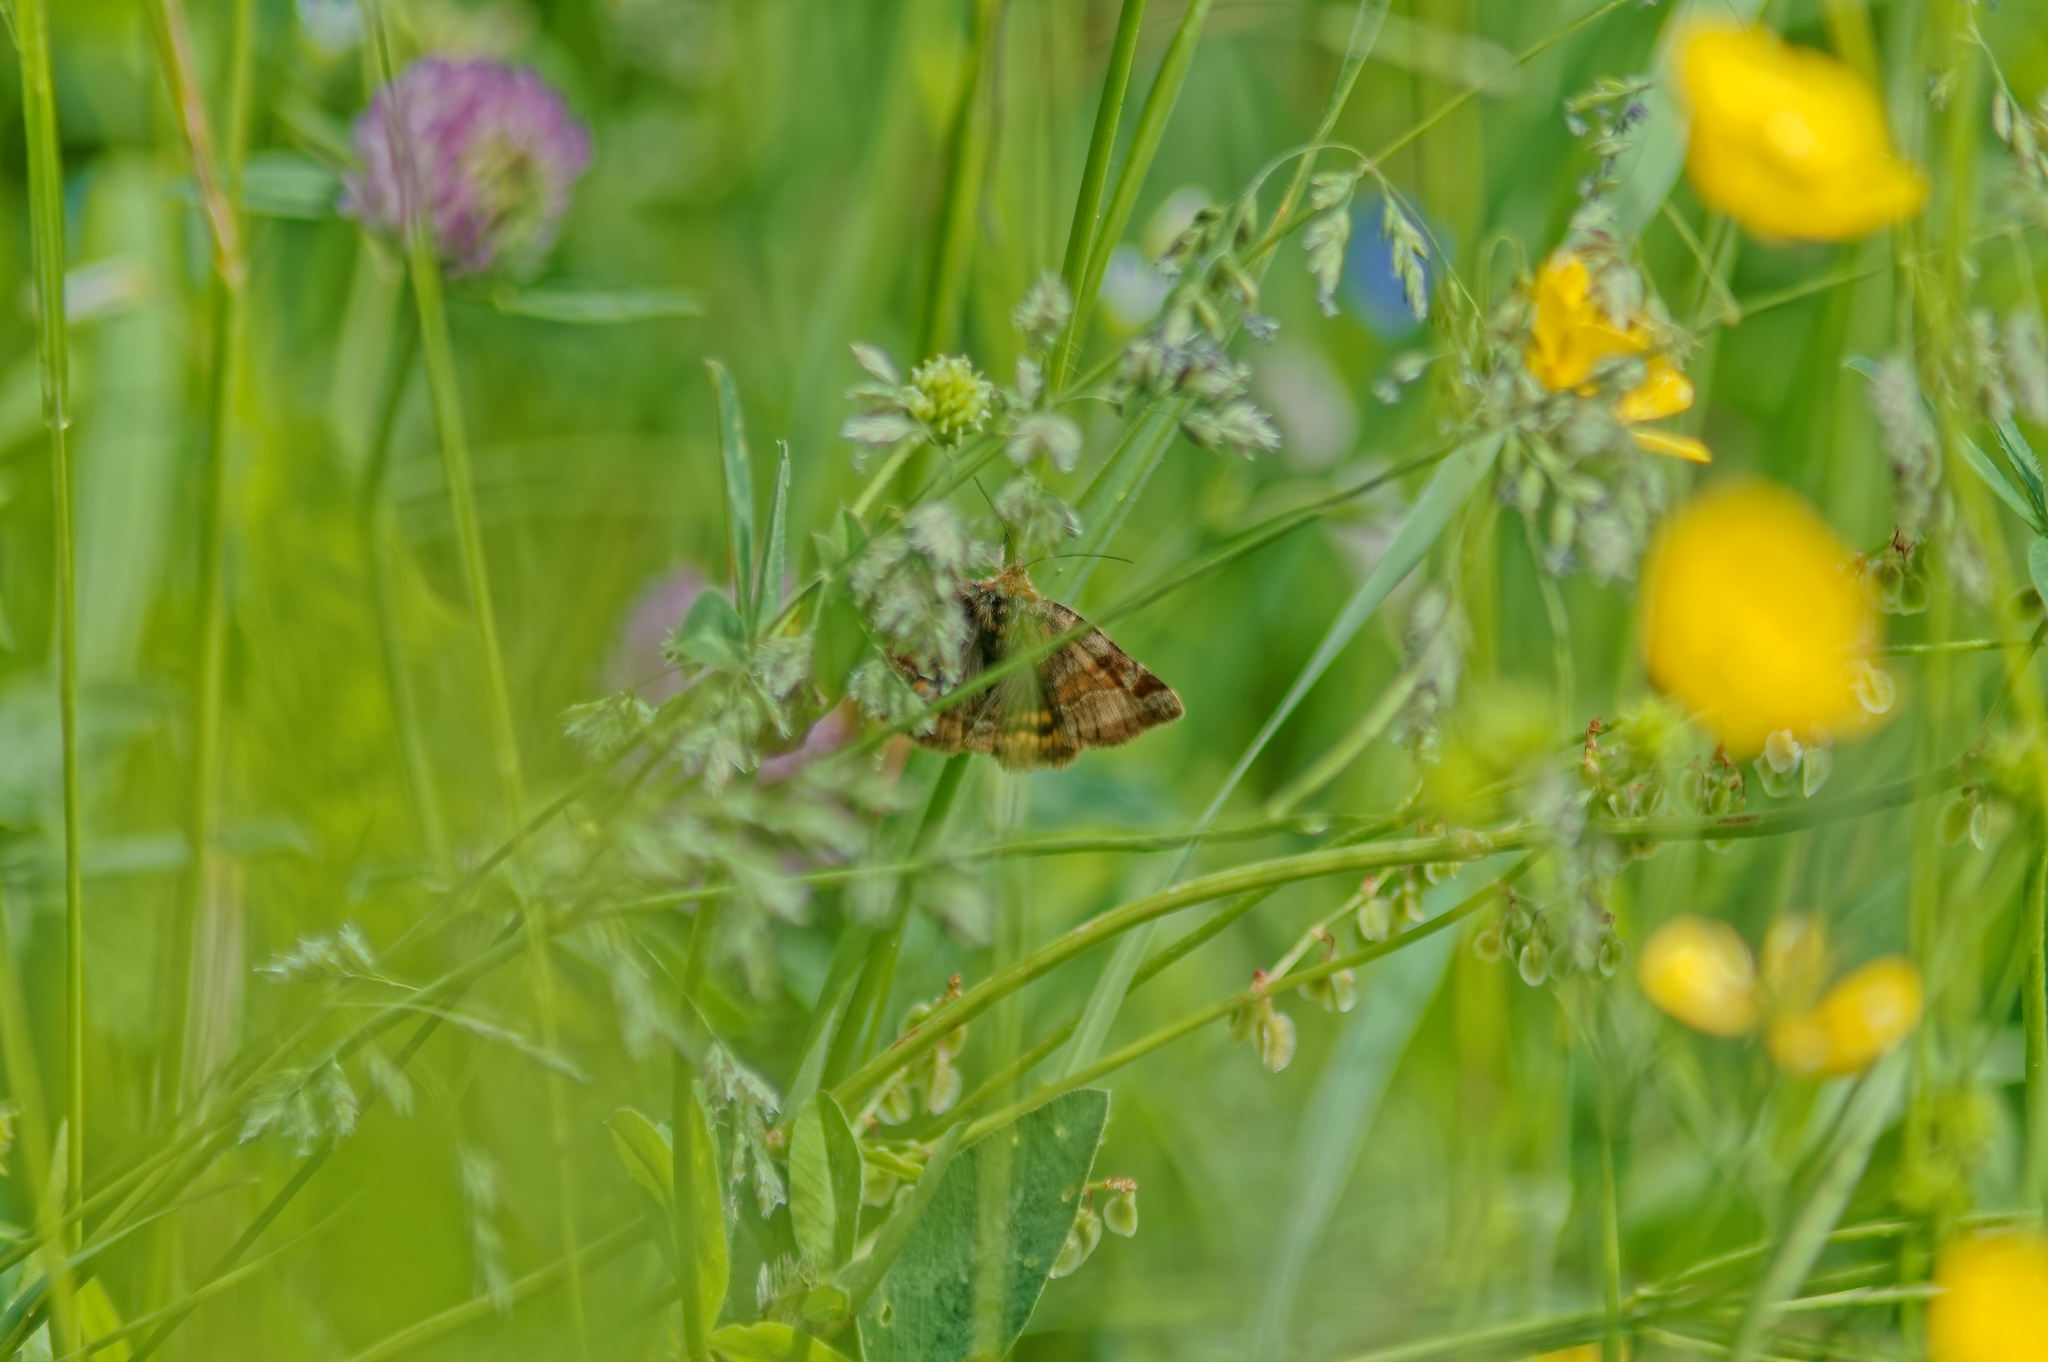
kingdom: Animalia
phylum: Arthropoda
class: Insecta
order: Lepidoptera
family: Erebidae
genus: Euclidia
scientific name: Euclidia glyphica
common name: Burnet companion
